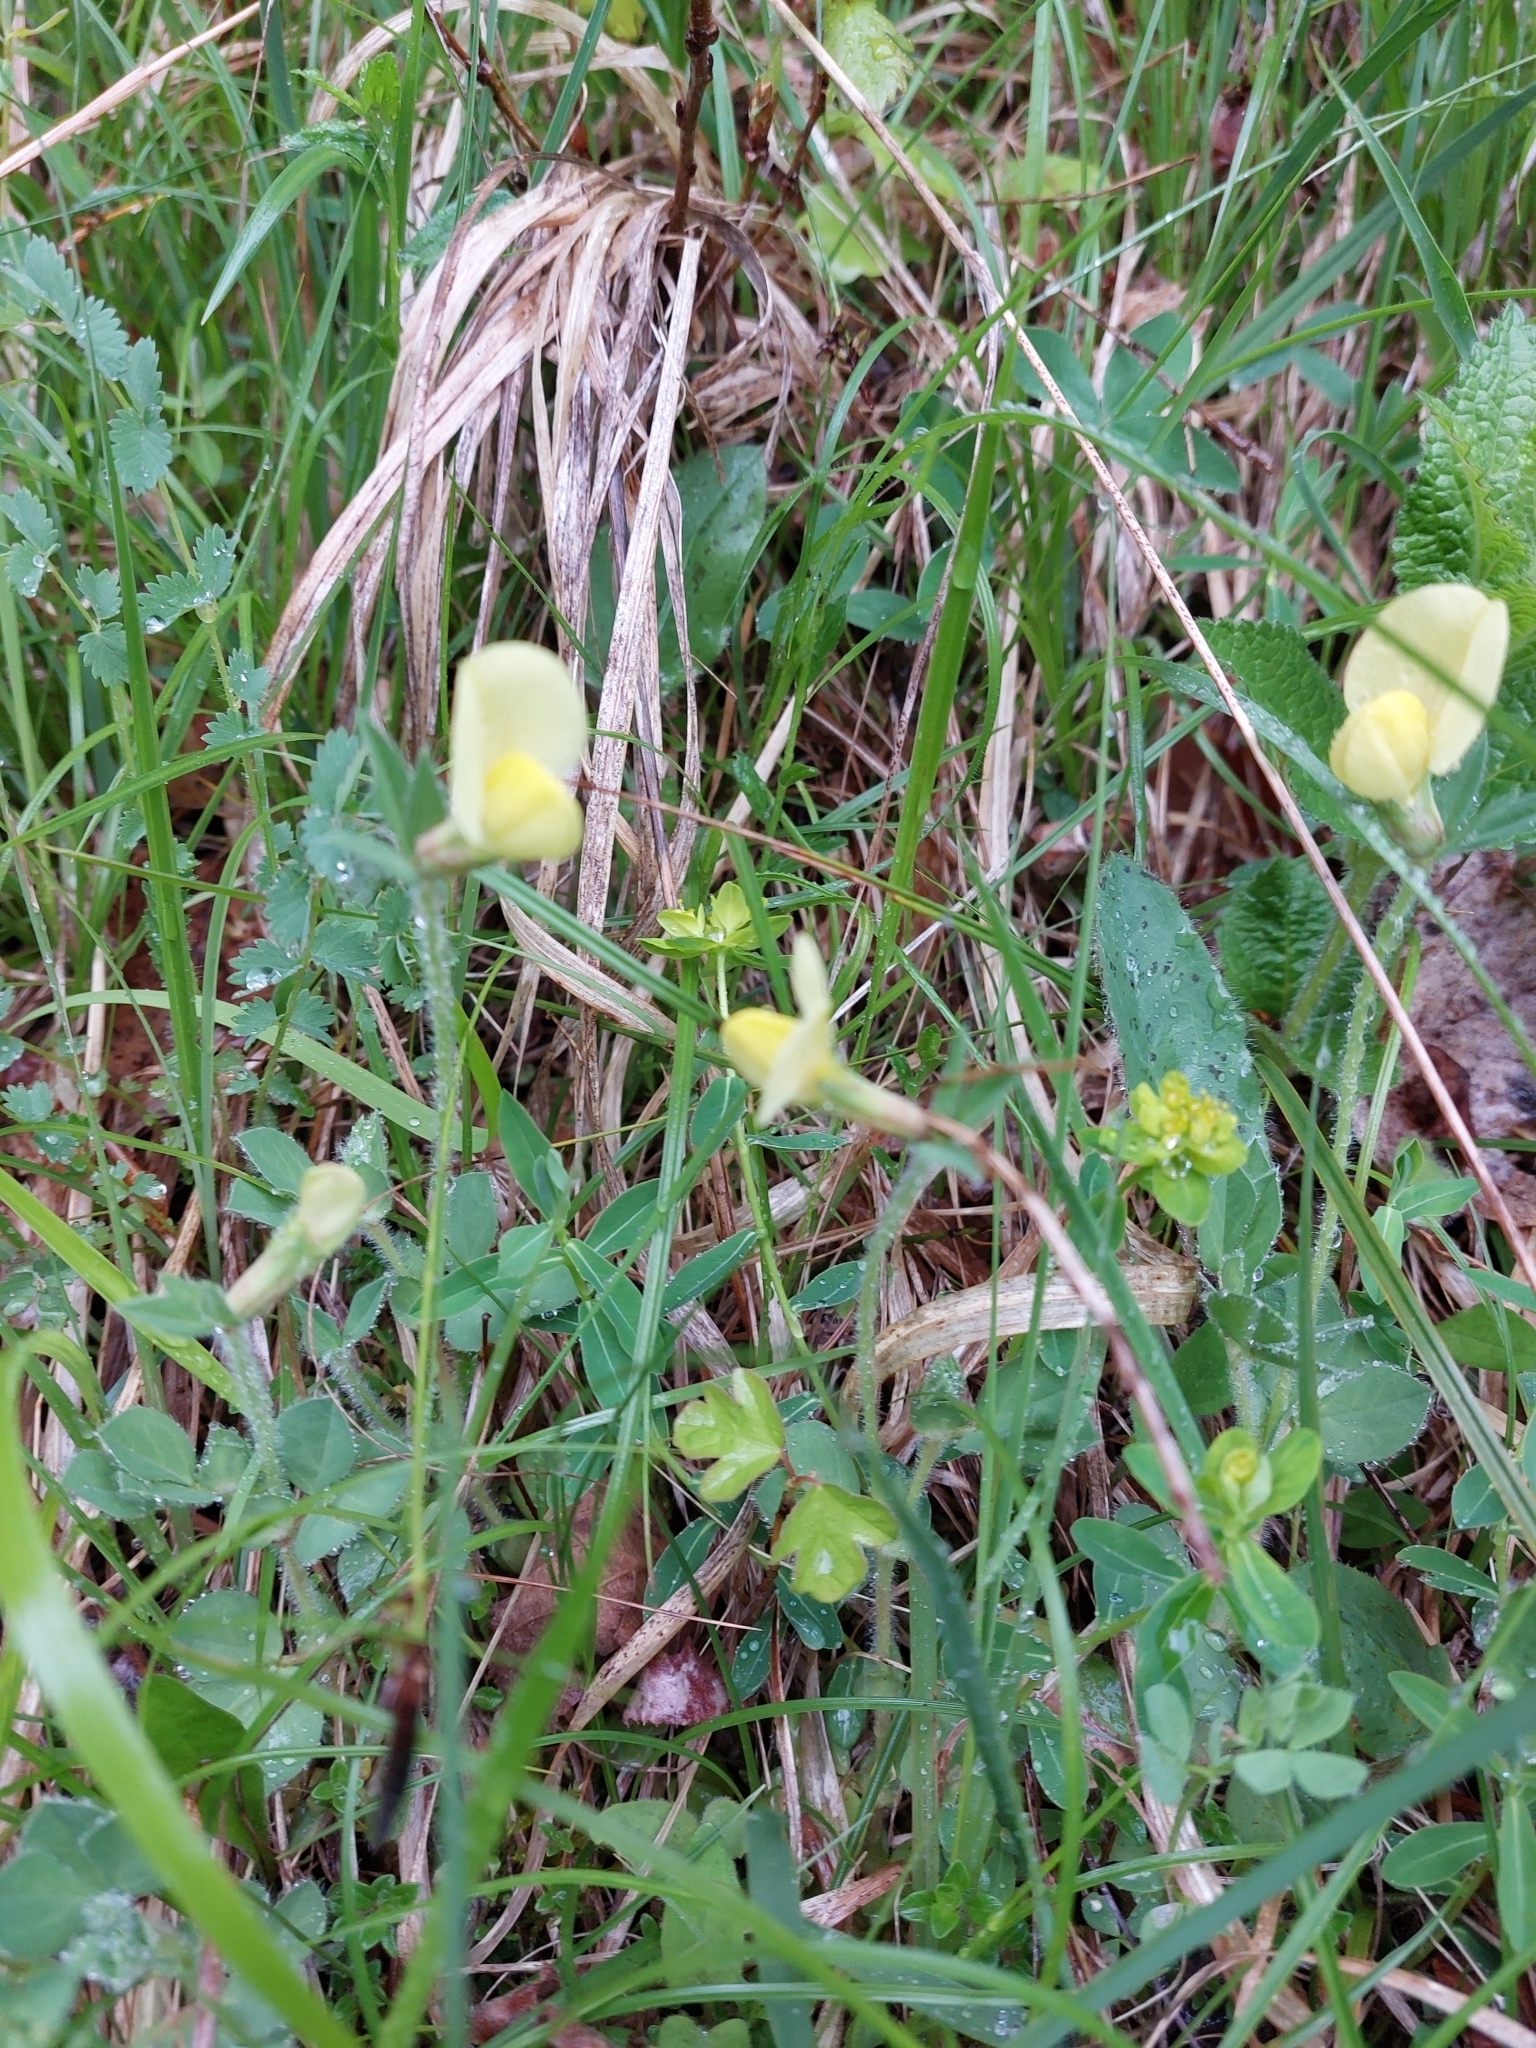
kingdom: Plantae
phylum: Tracheophyta
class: Magnoliopsida
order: Fabales
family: Fabaceae
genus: Lotus
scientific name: Lotus maritimus
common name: Dragon's-teeth
